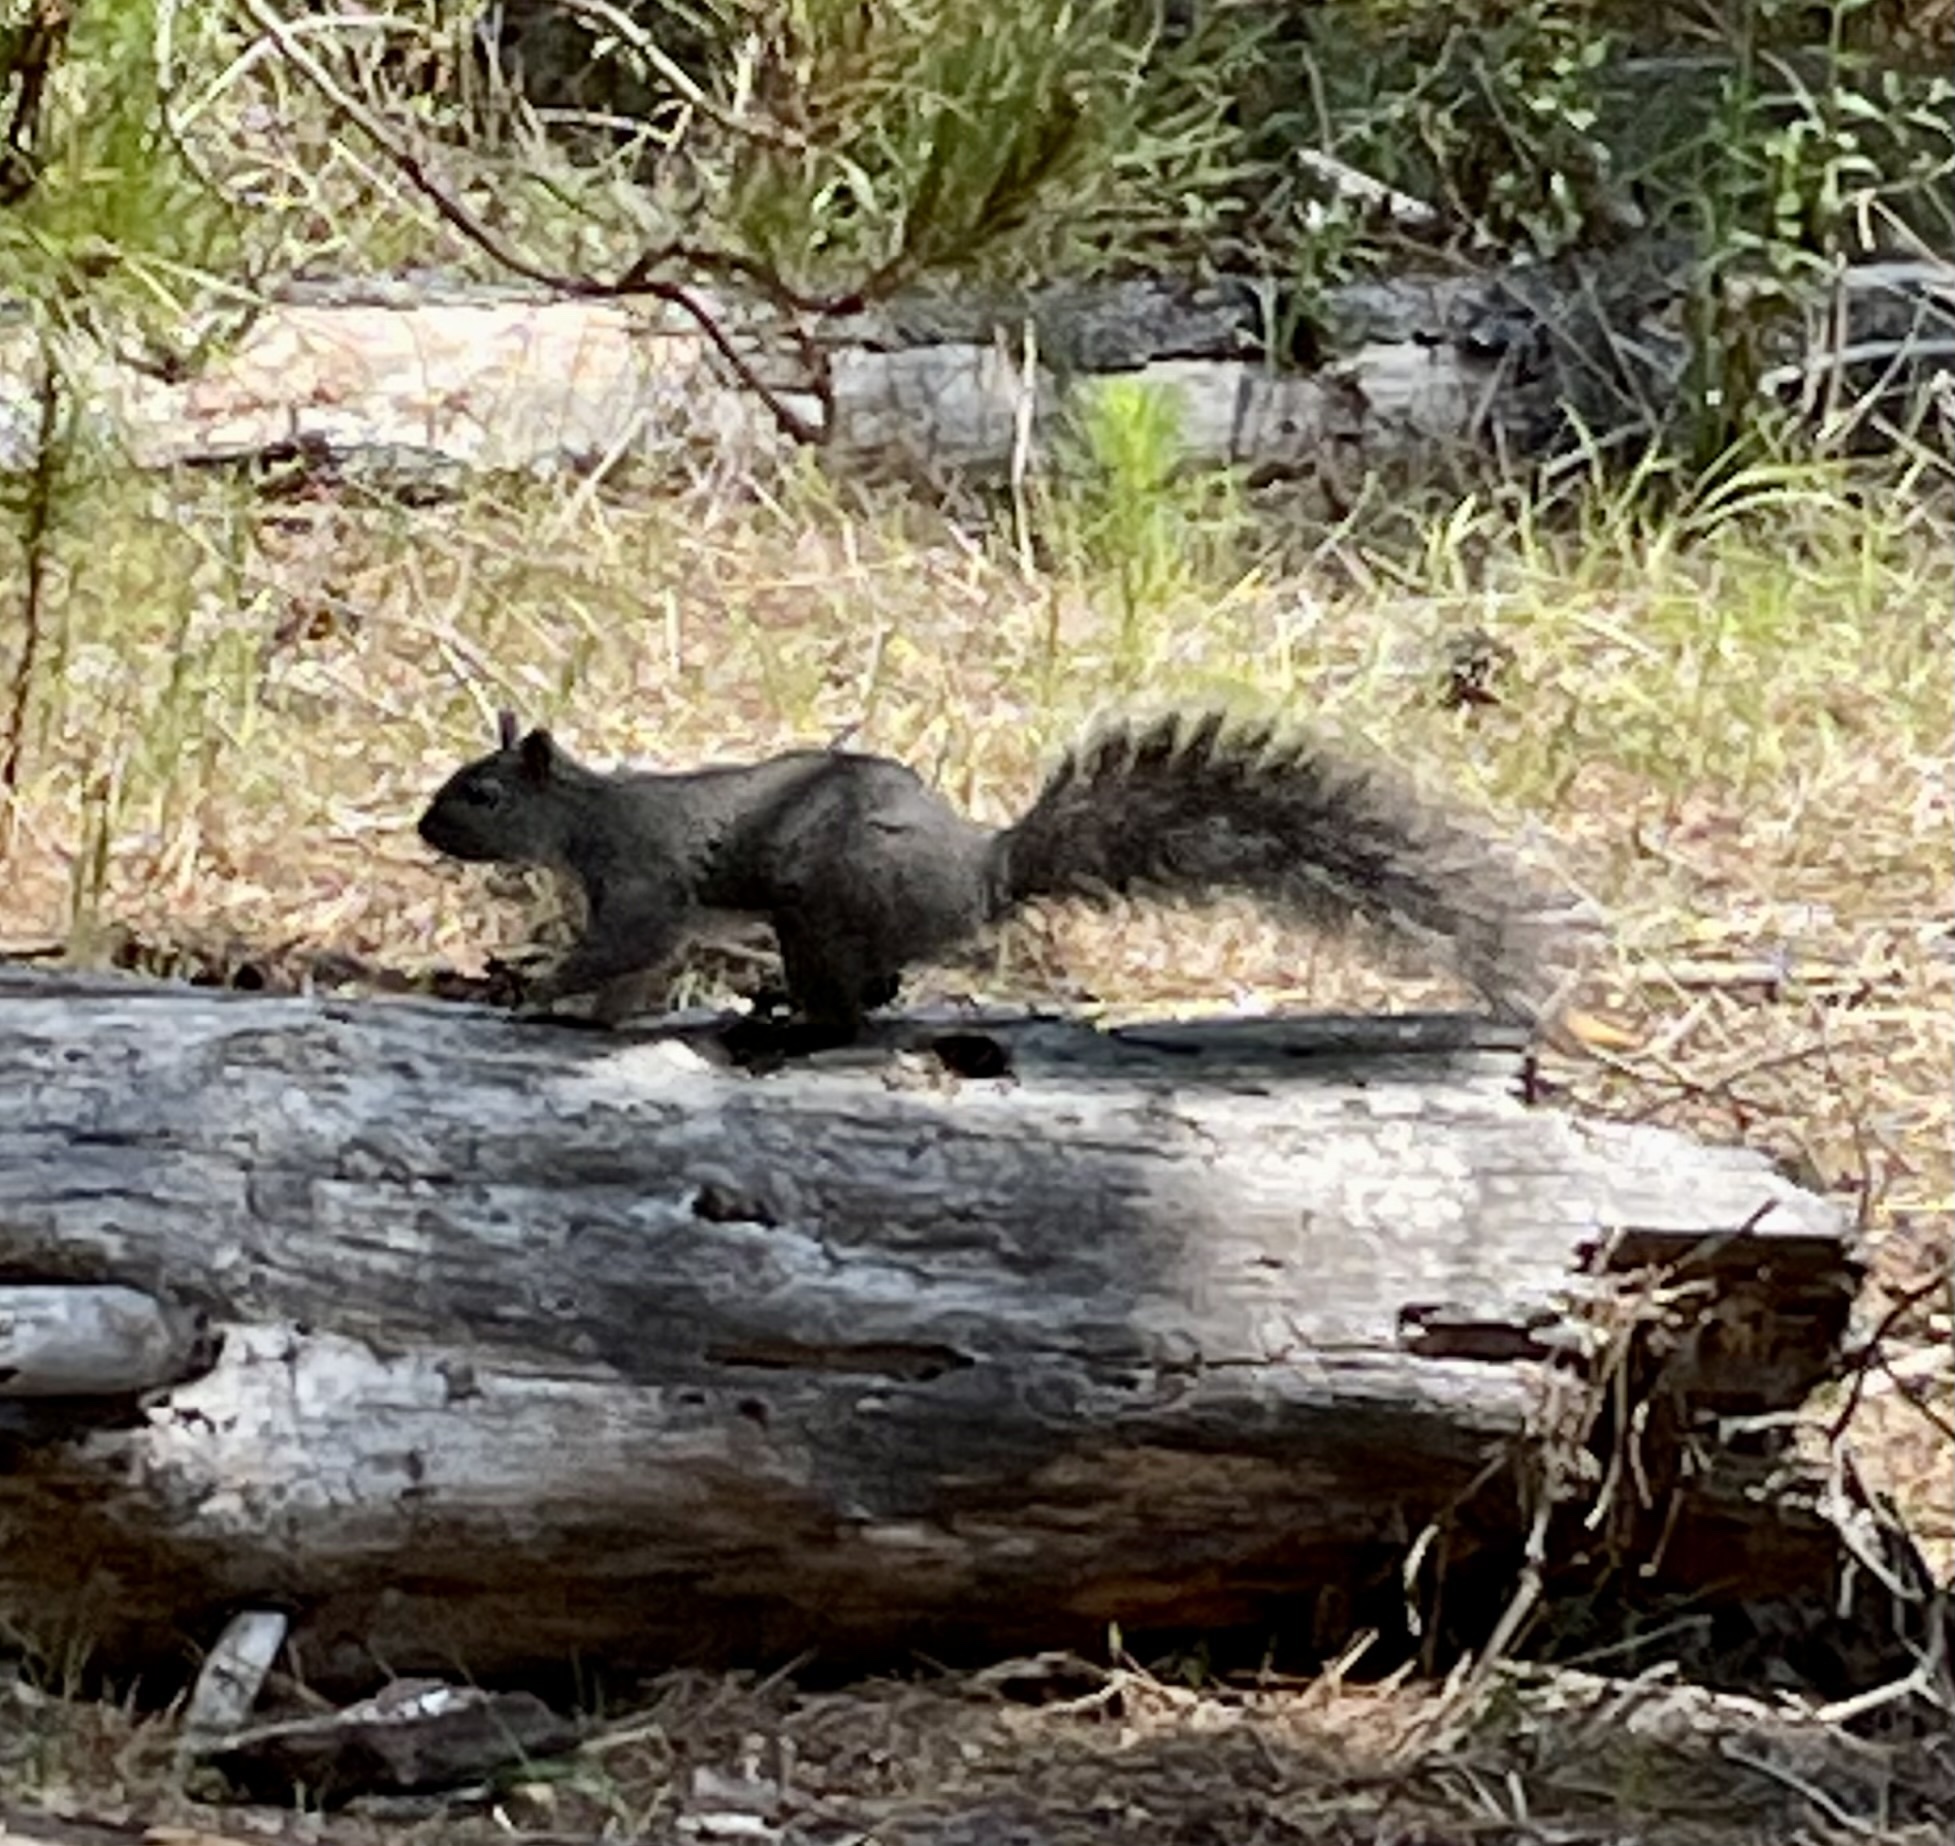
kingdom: Animalia
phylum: Chordata
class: Mammalia
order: Rodentia
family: Sciuridae
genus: Sciurus
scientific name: Sciurus griseus
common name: Western gray squirrel
